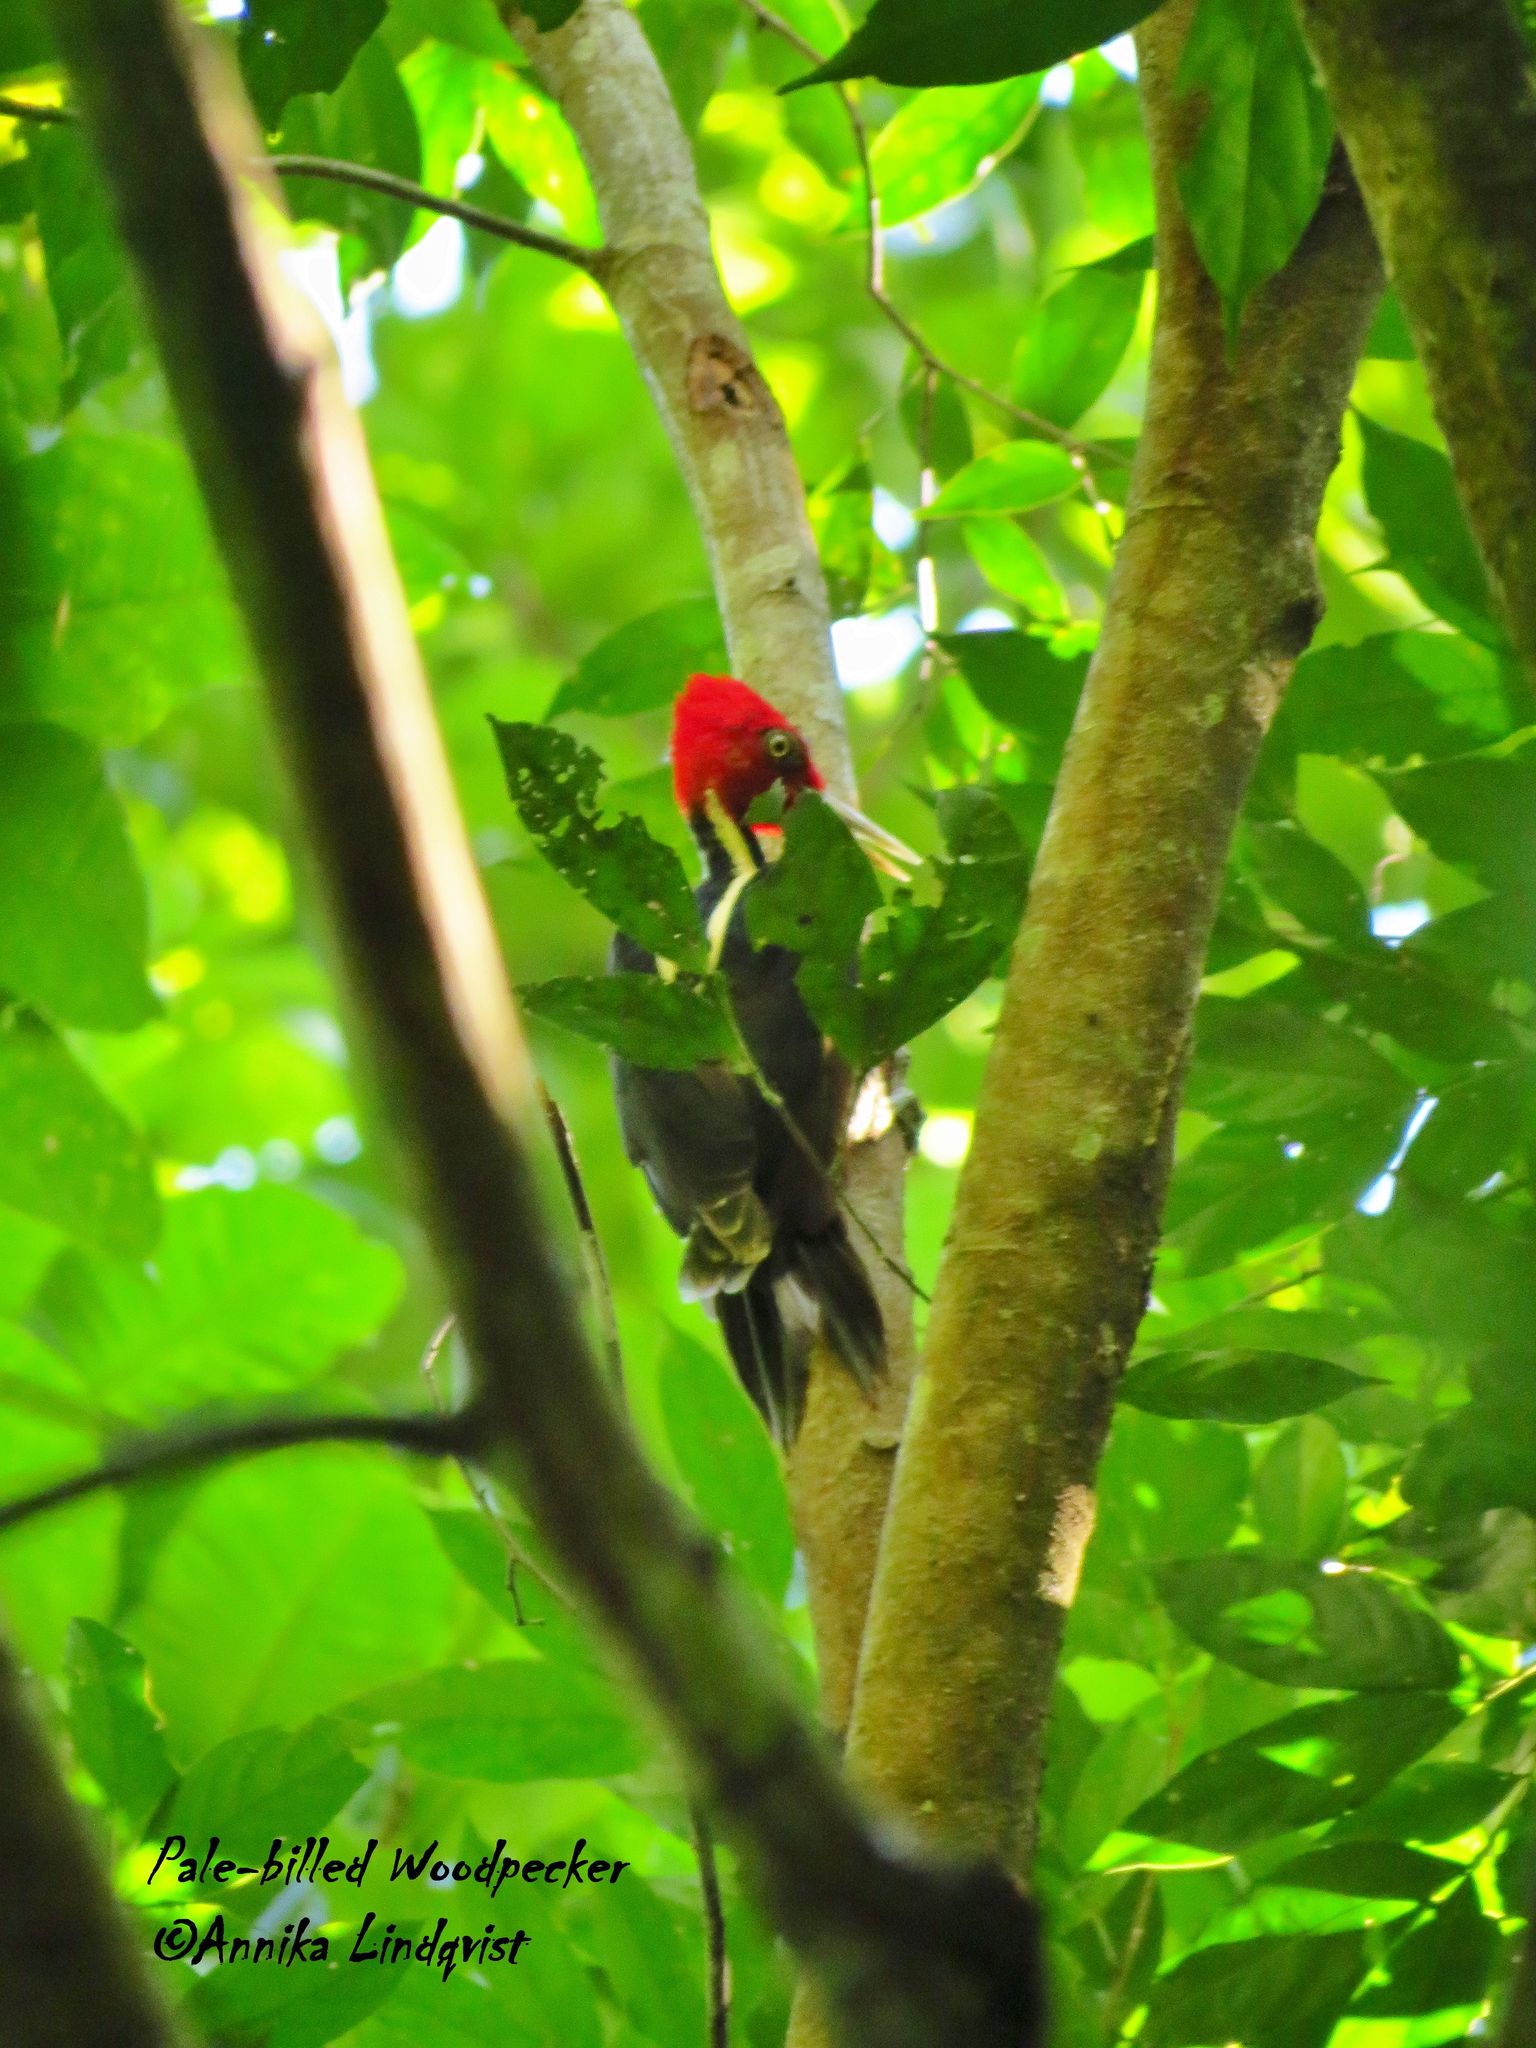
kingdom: Animalia
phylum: Chordata
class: Aves
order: Piciformes
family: Picidae
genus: Campephilus
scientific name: Campephilus guatemalensis
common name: Pale-billed woodpecker
